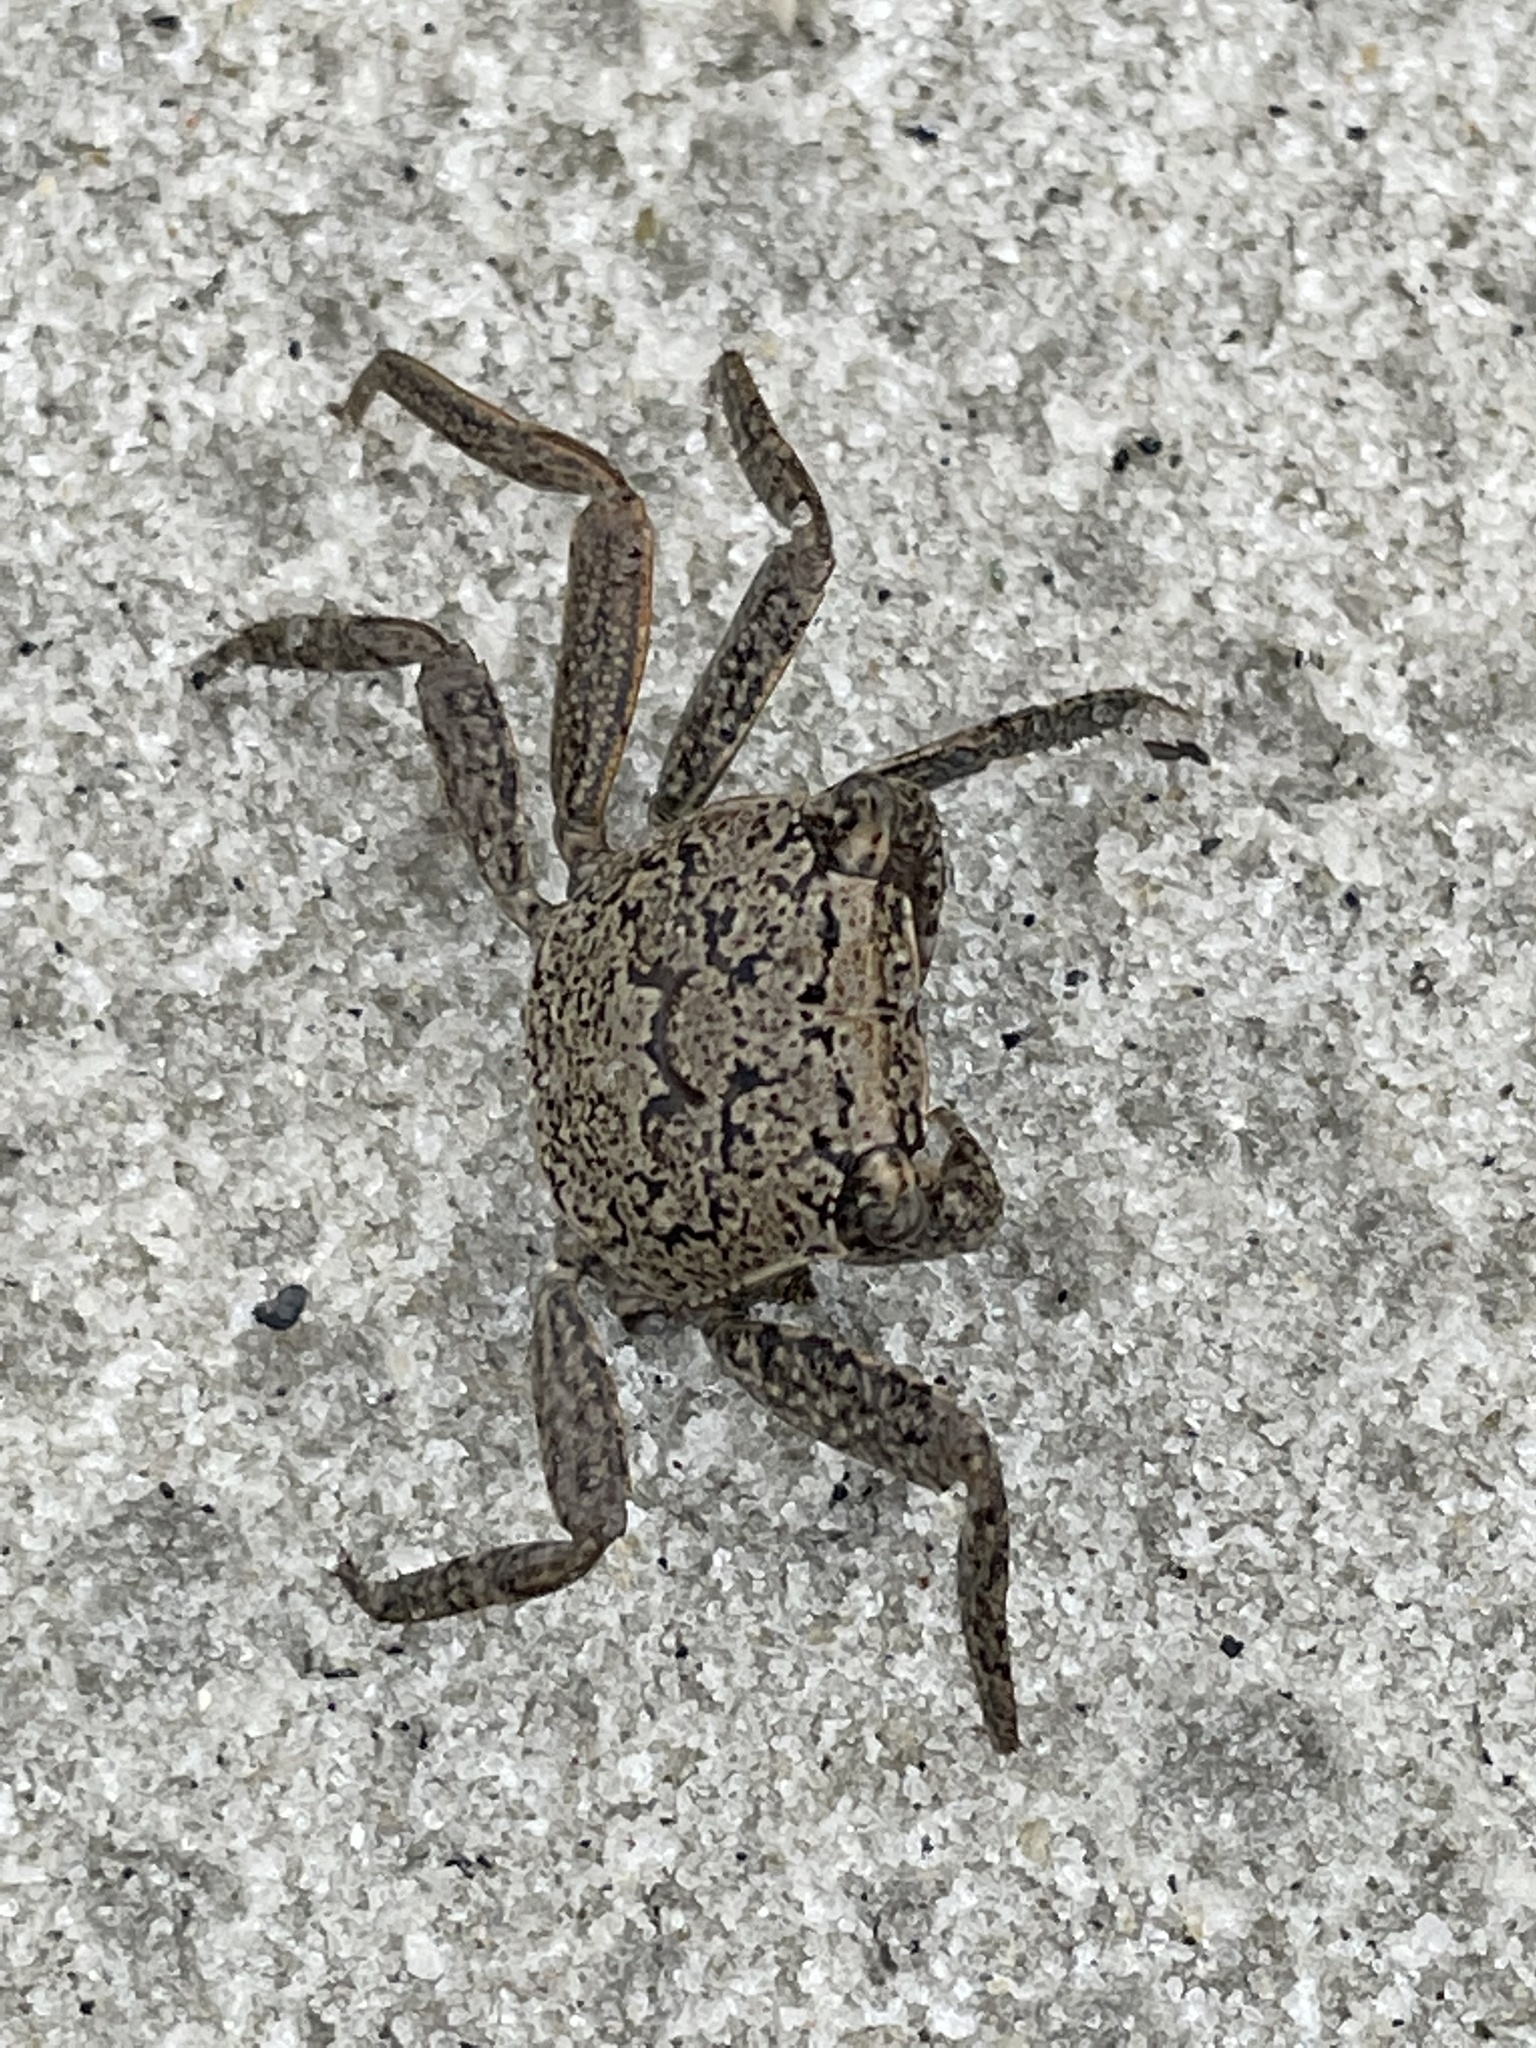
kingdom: Animalia
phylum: Arthropoda
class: Malacostraca
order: Decapoda
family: Sesarmidae
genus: Armases
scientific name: Armases cinereum
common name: Squareback marsh crab
